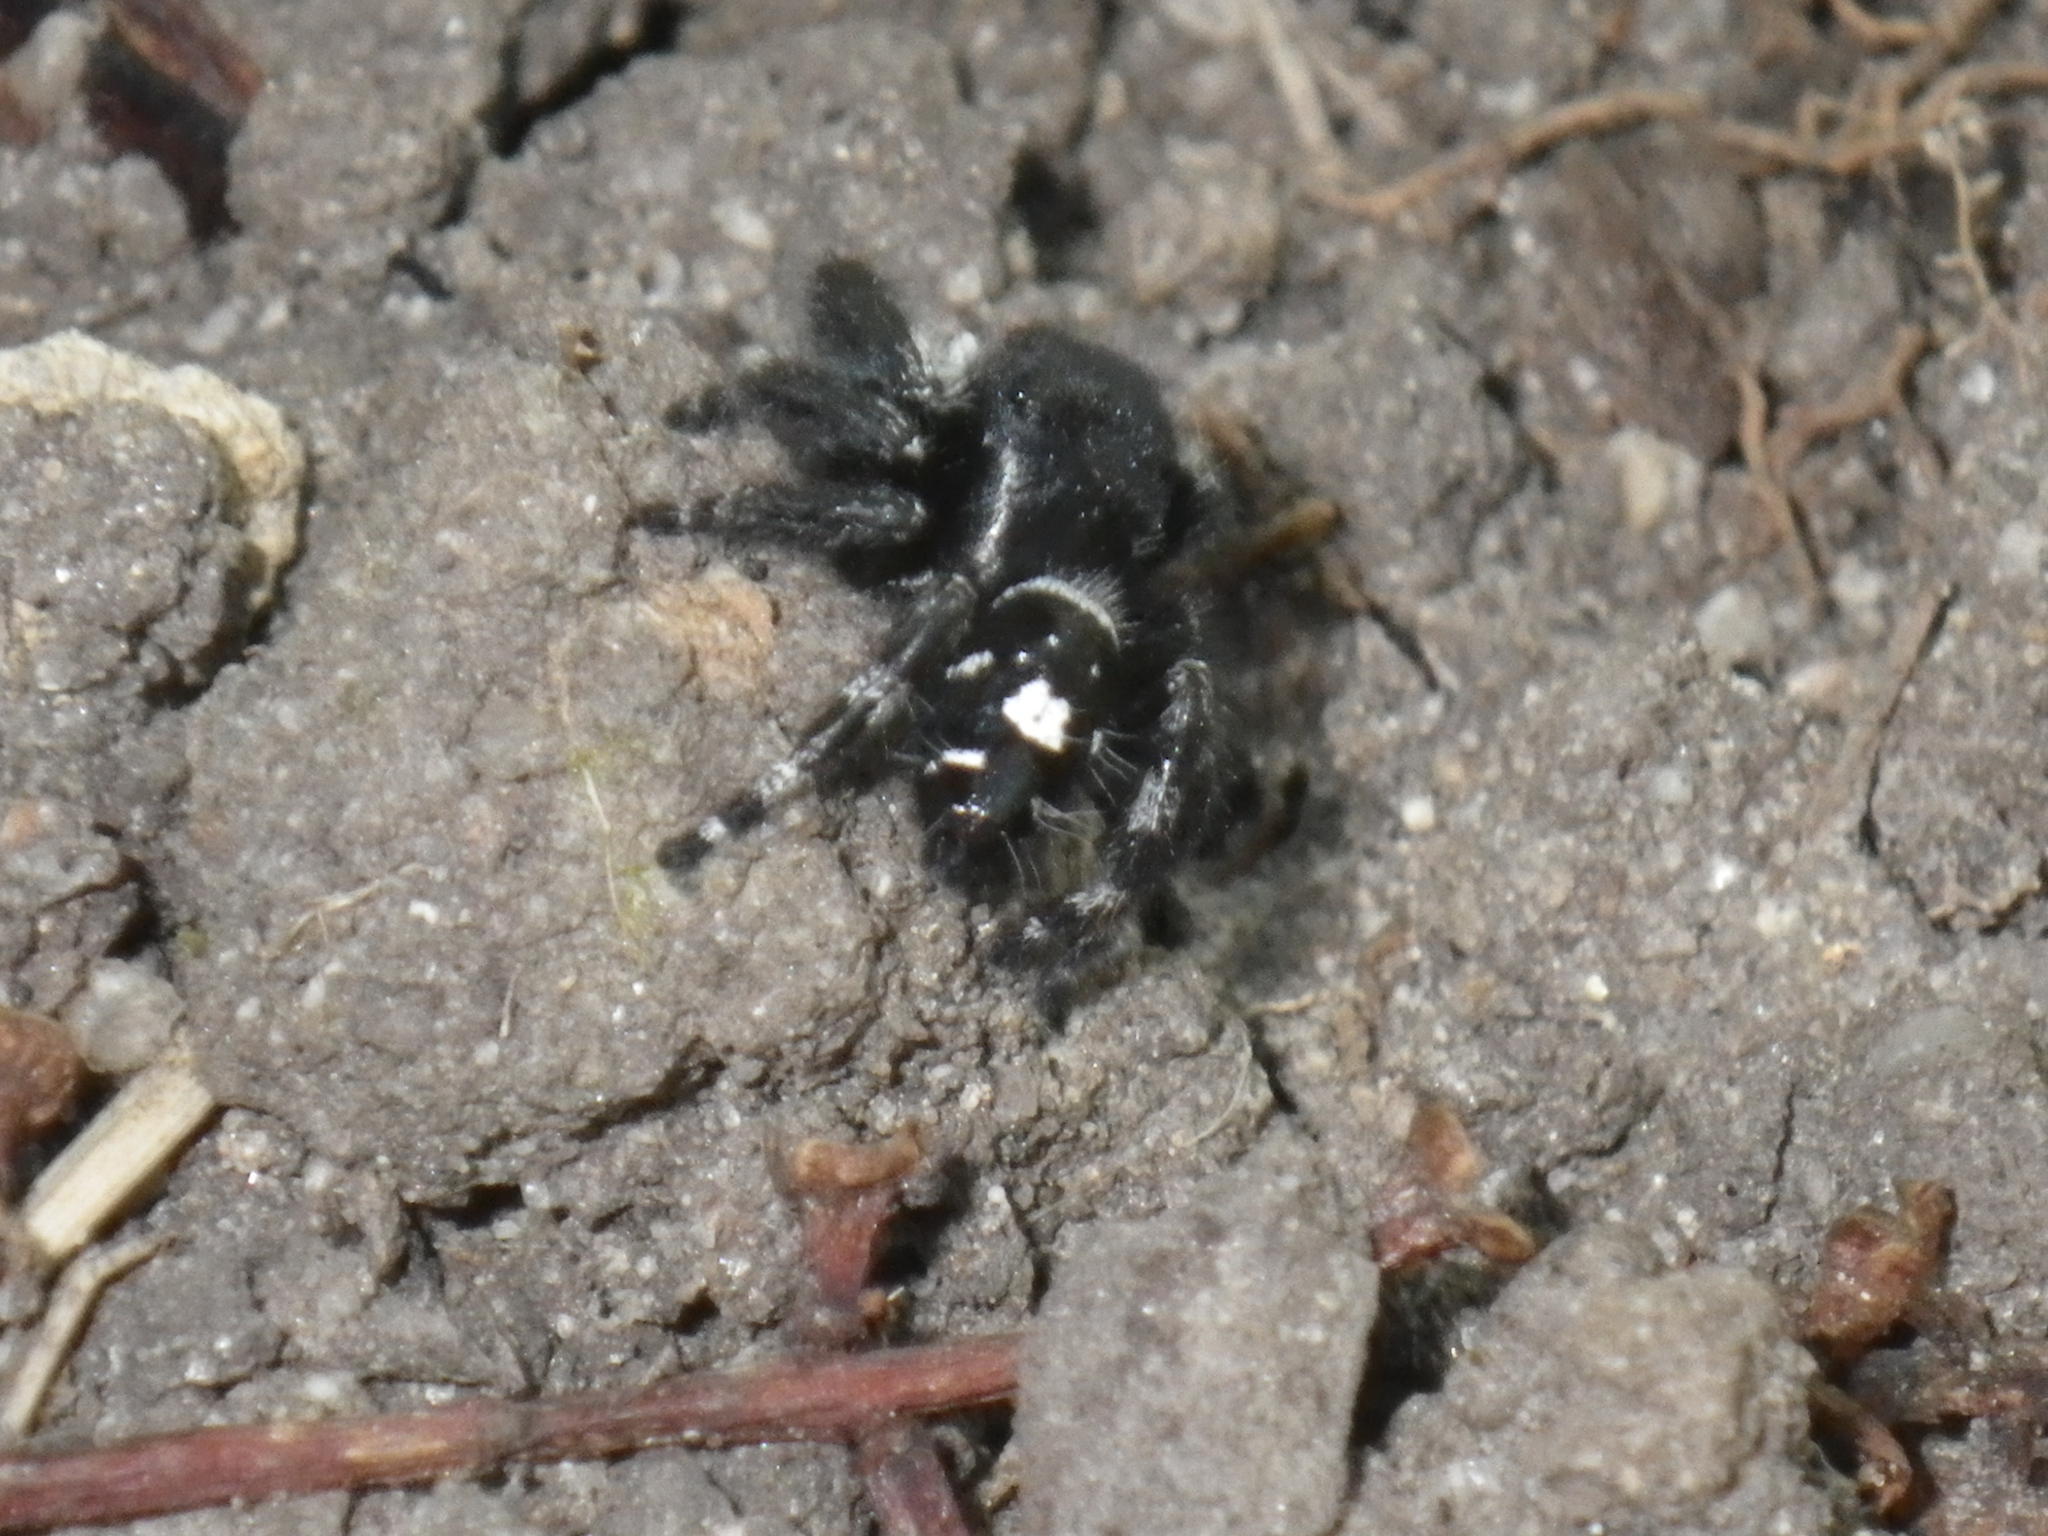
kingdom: Animalia
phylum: Arthropoda
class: Arachnida
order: Araneae
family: Salticidae
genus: Phidippus
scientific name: Phidippus audax
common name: Bold jumper
